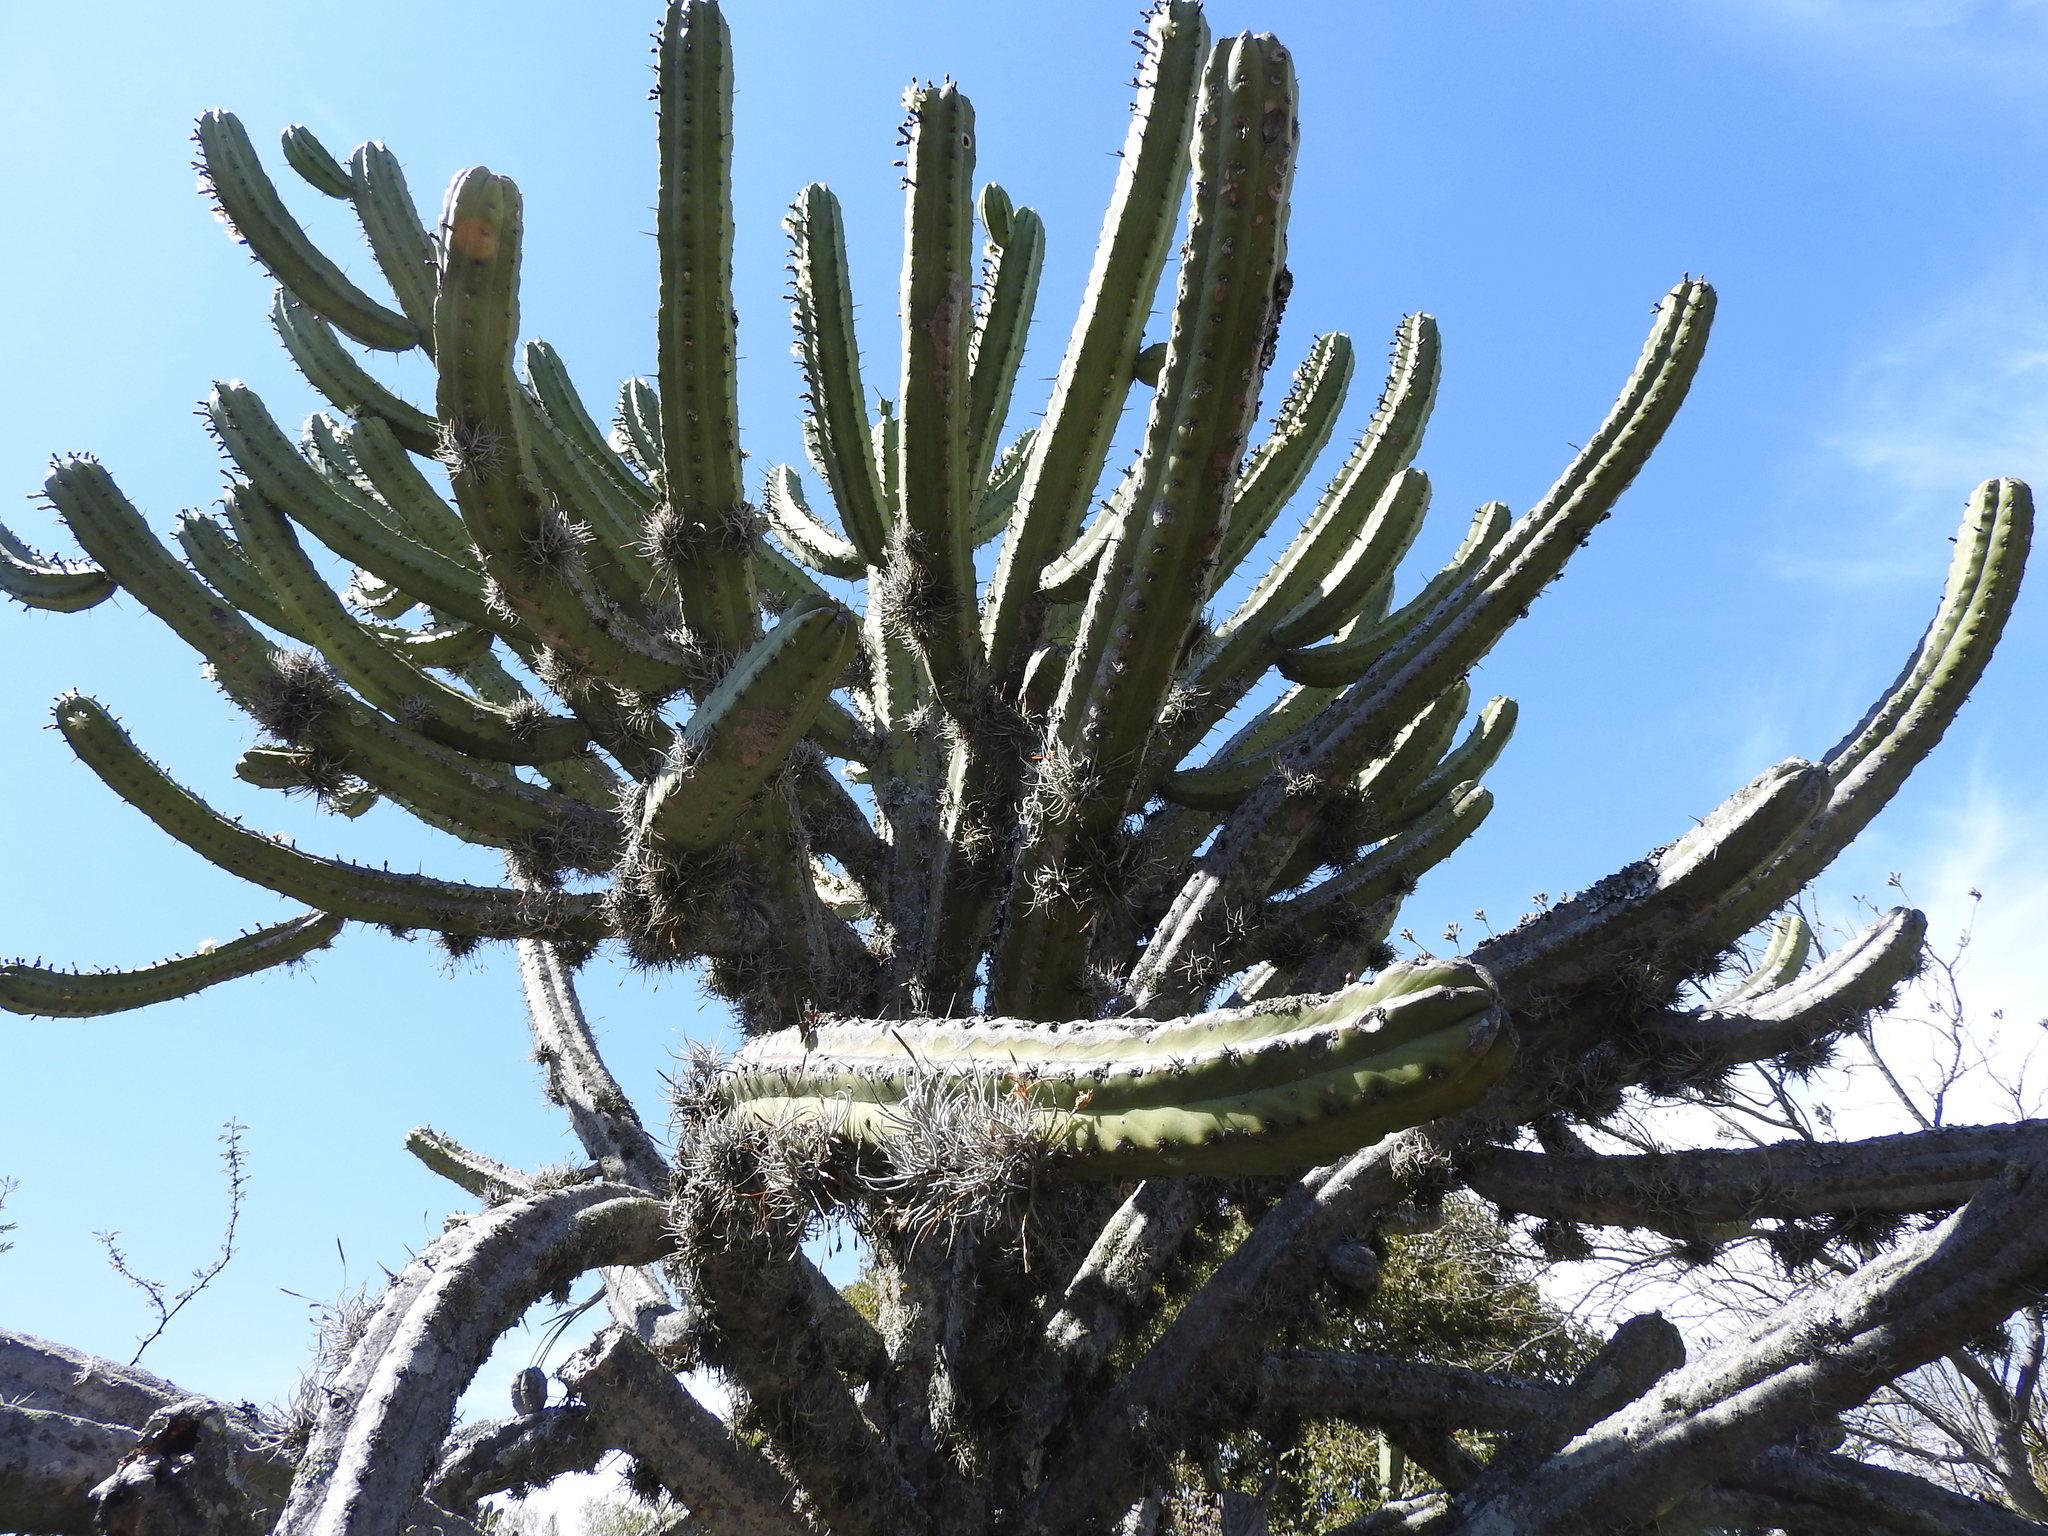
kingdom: Plantae
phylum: Tracheophyta
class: Magnoliopsida
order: Caryophyllales
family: Cactaceae
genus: Myrtillocactus
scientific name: Myrtillocactus geometrizans
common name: Bilberry cactus
